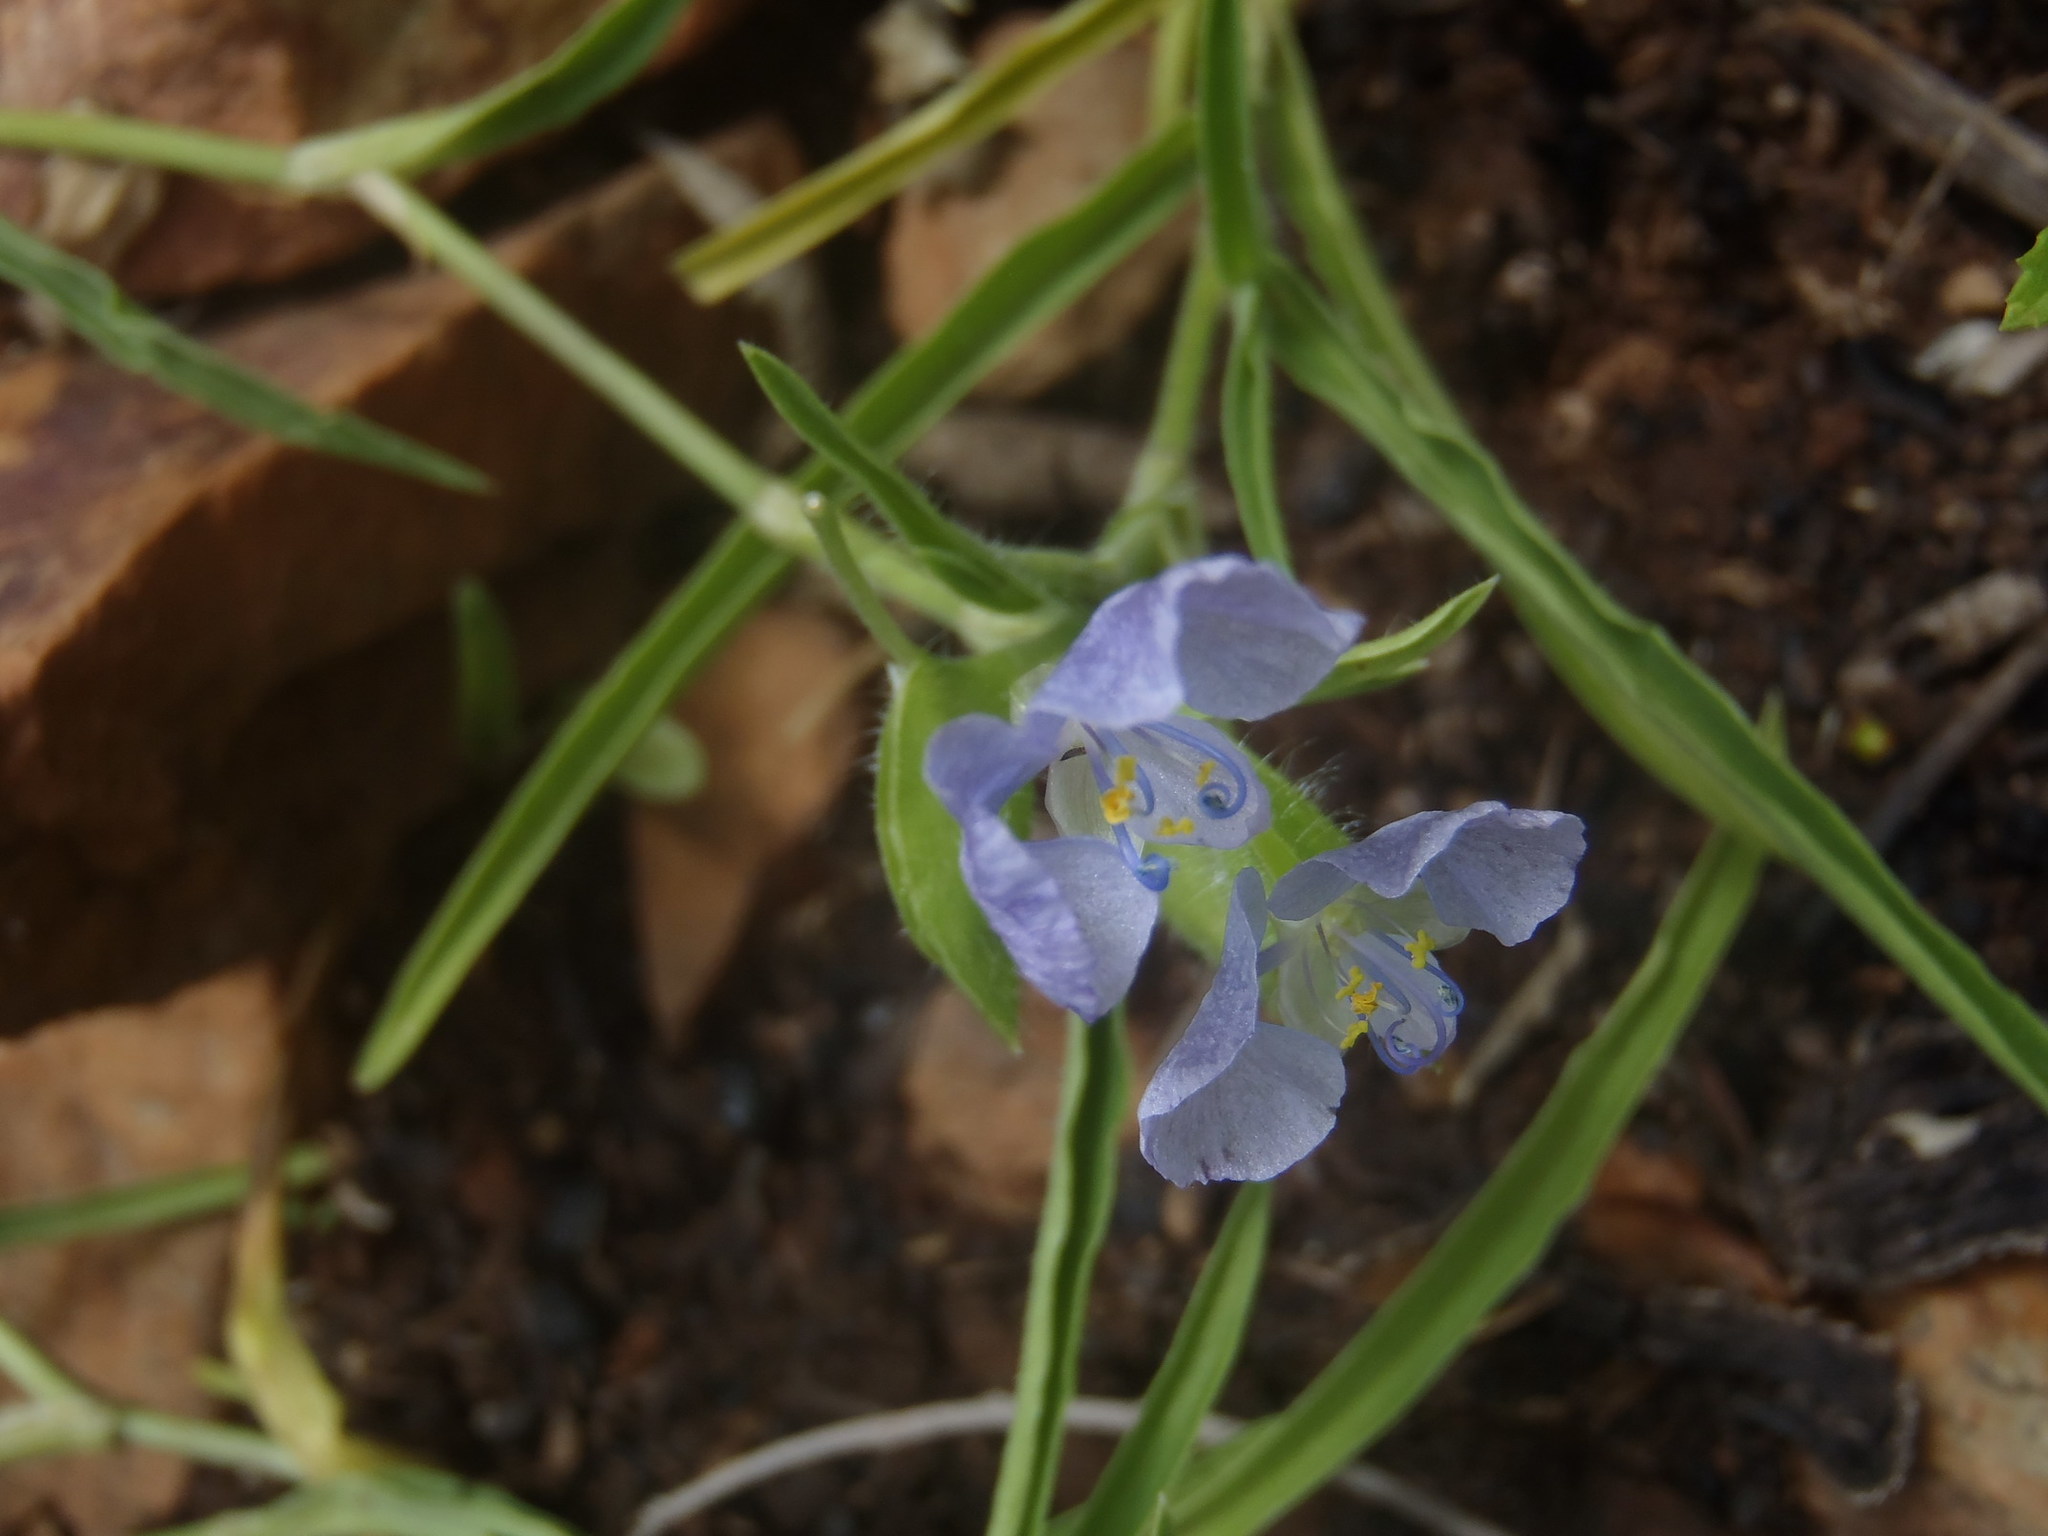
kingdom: Plantae
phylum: Tracheophyta
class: Liliopsida
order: Commelinales
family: Commelinaceae
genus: Commelina
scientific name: Commelina modesta
